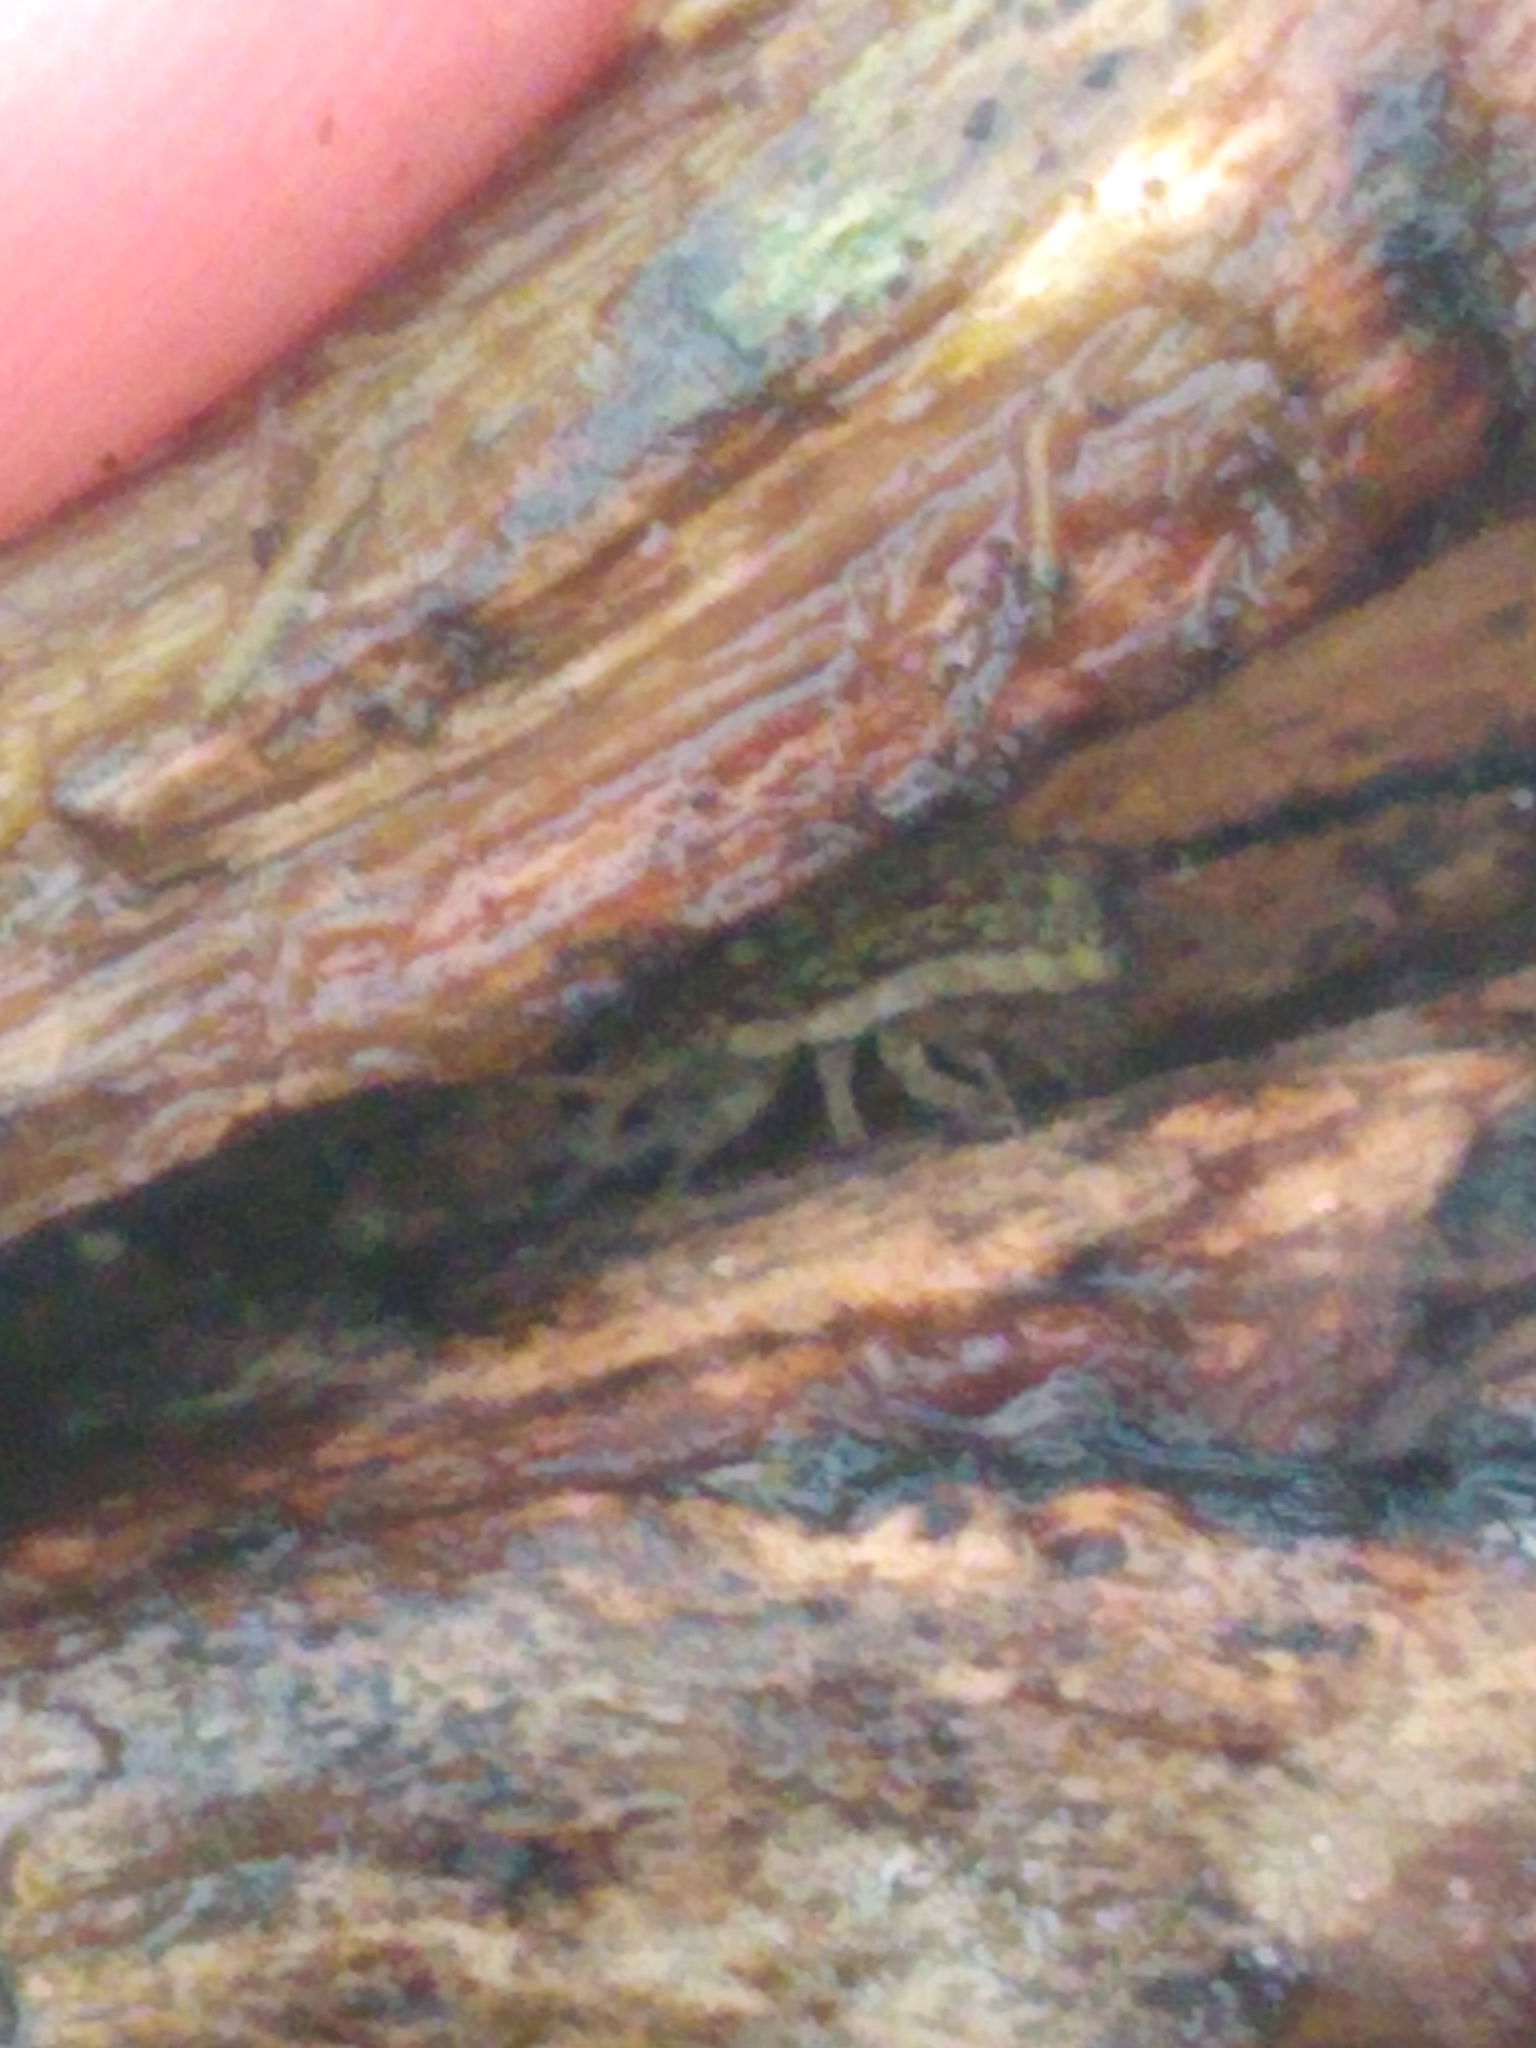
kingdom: Animalia
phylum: Arthropoda
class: Malacostraca
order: Isopoda
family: Philosciidae
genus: Philoscia
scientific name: Philoscia muscorum
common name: Common striped woodlouse
